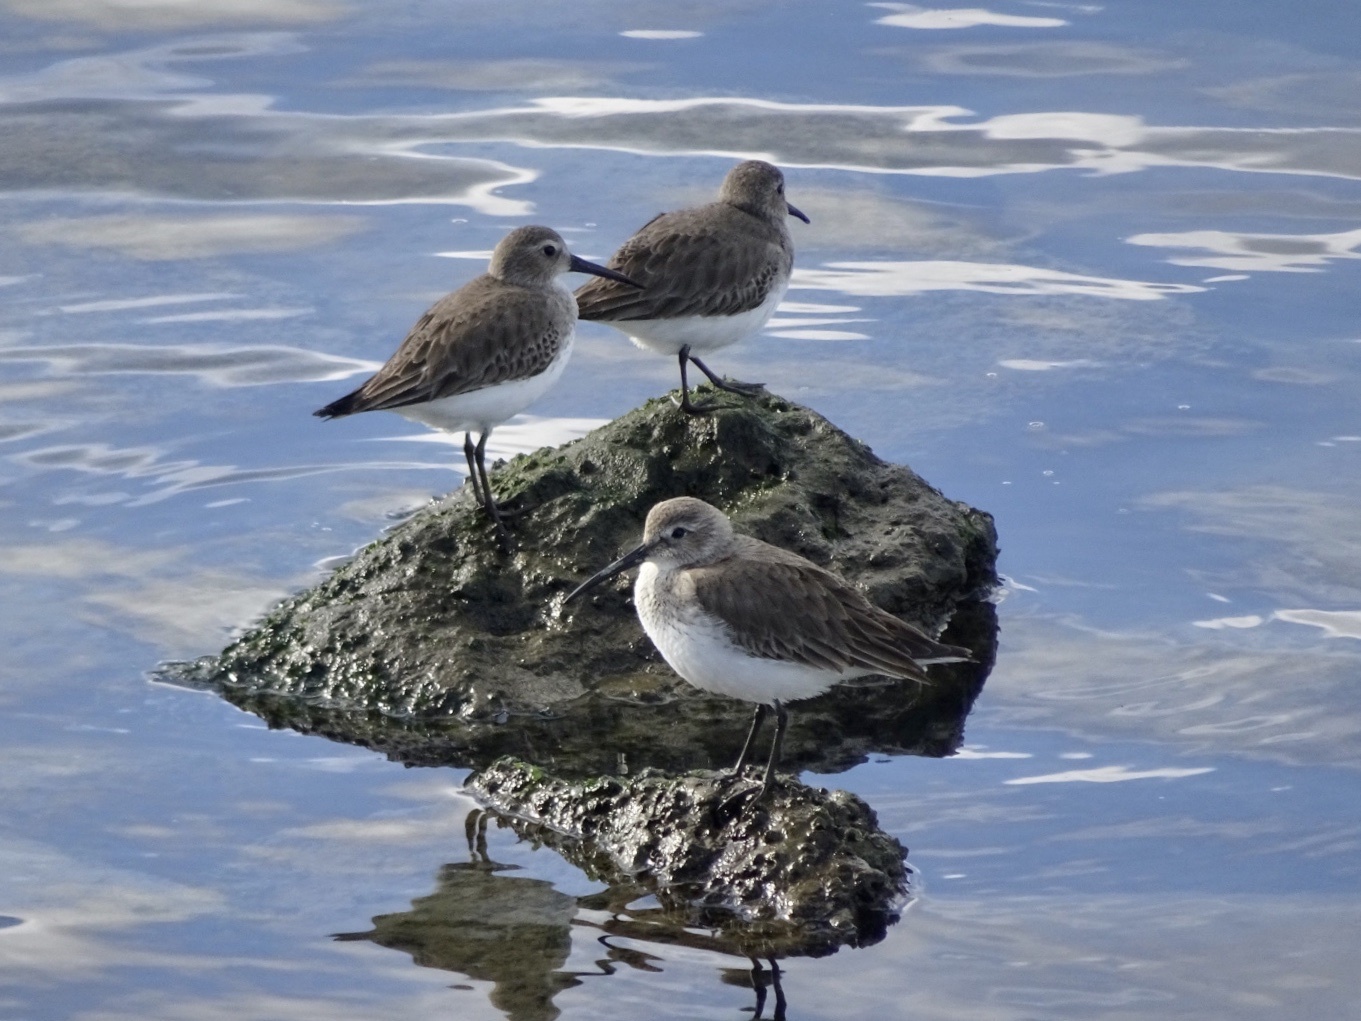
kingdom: Animalia
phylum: Chordata
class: Aves
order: Charadriiformes
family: Scolopacidae
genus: Calidris
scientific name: Calidris alpina
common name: Dunlin
